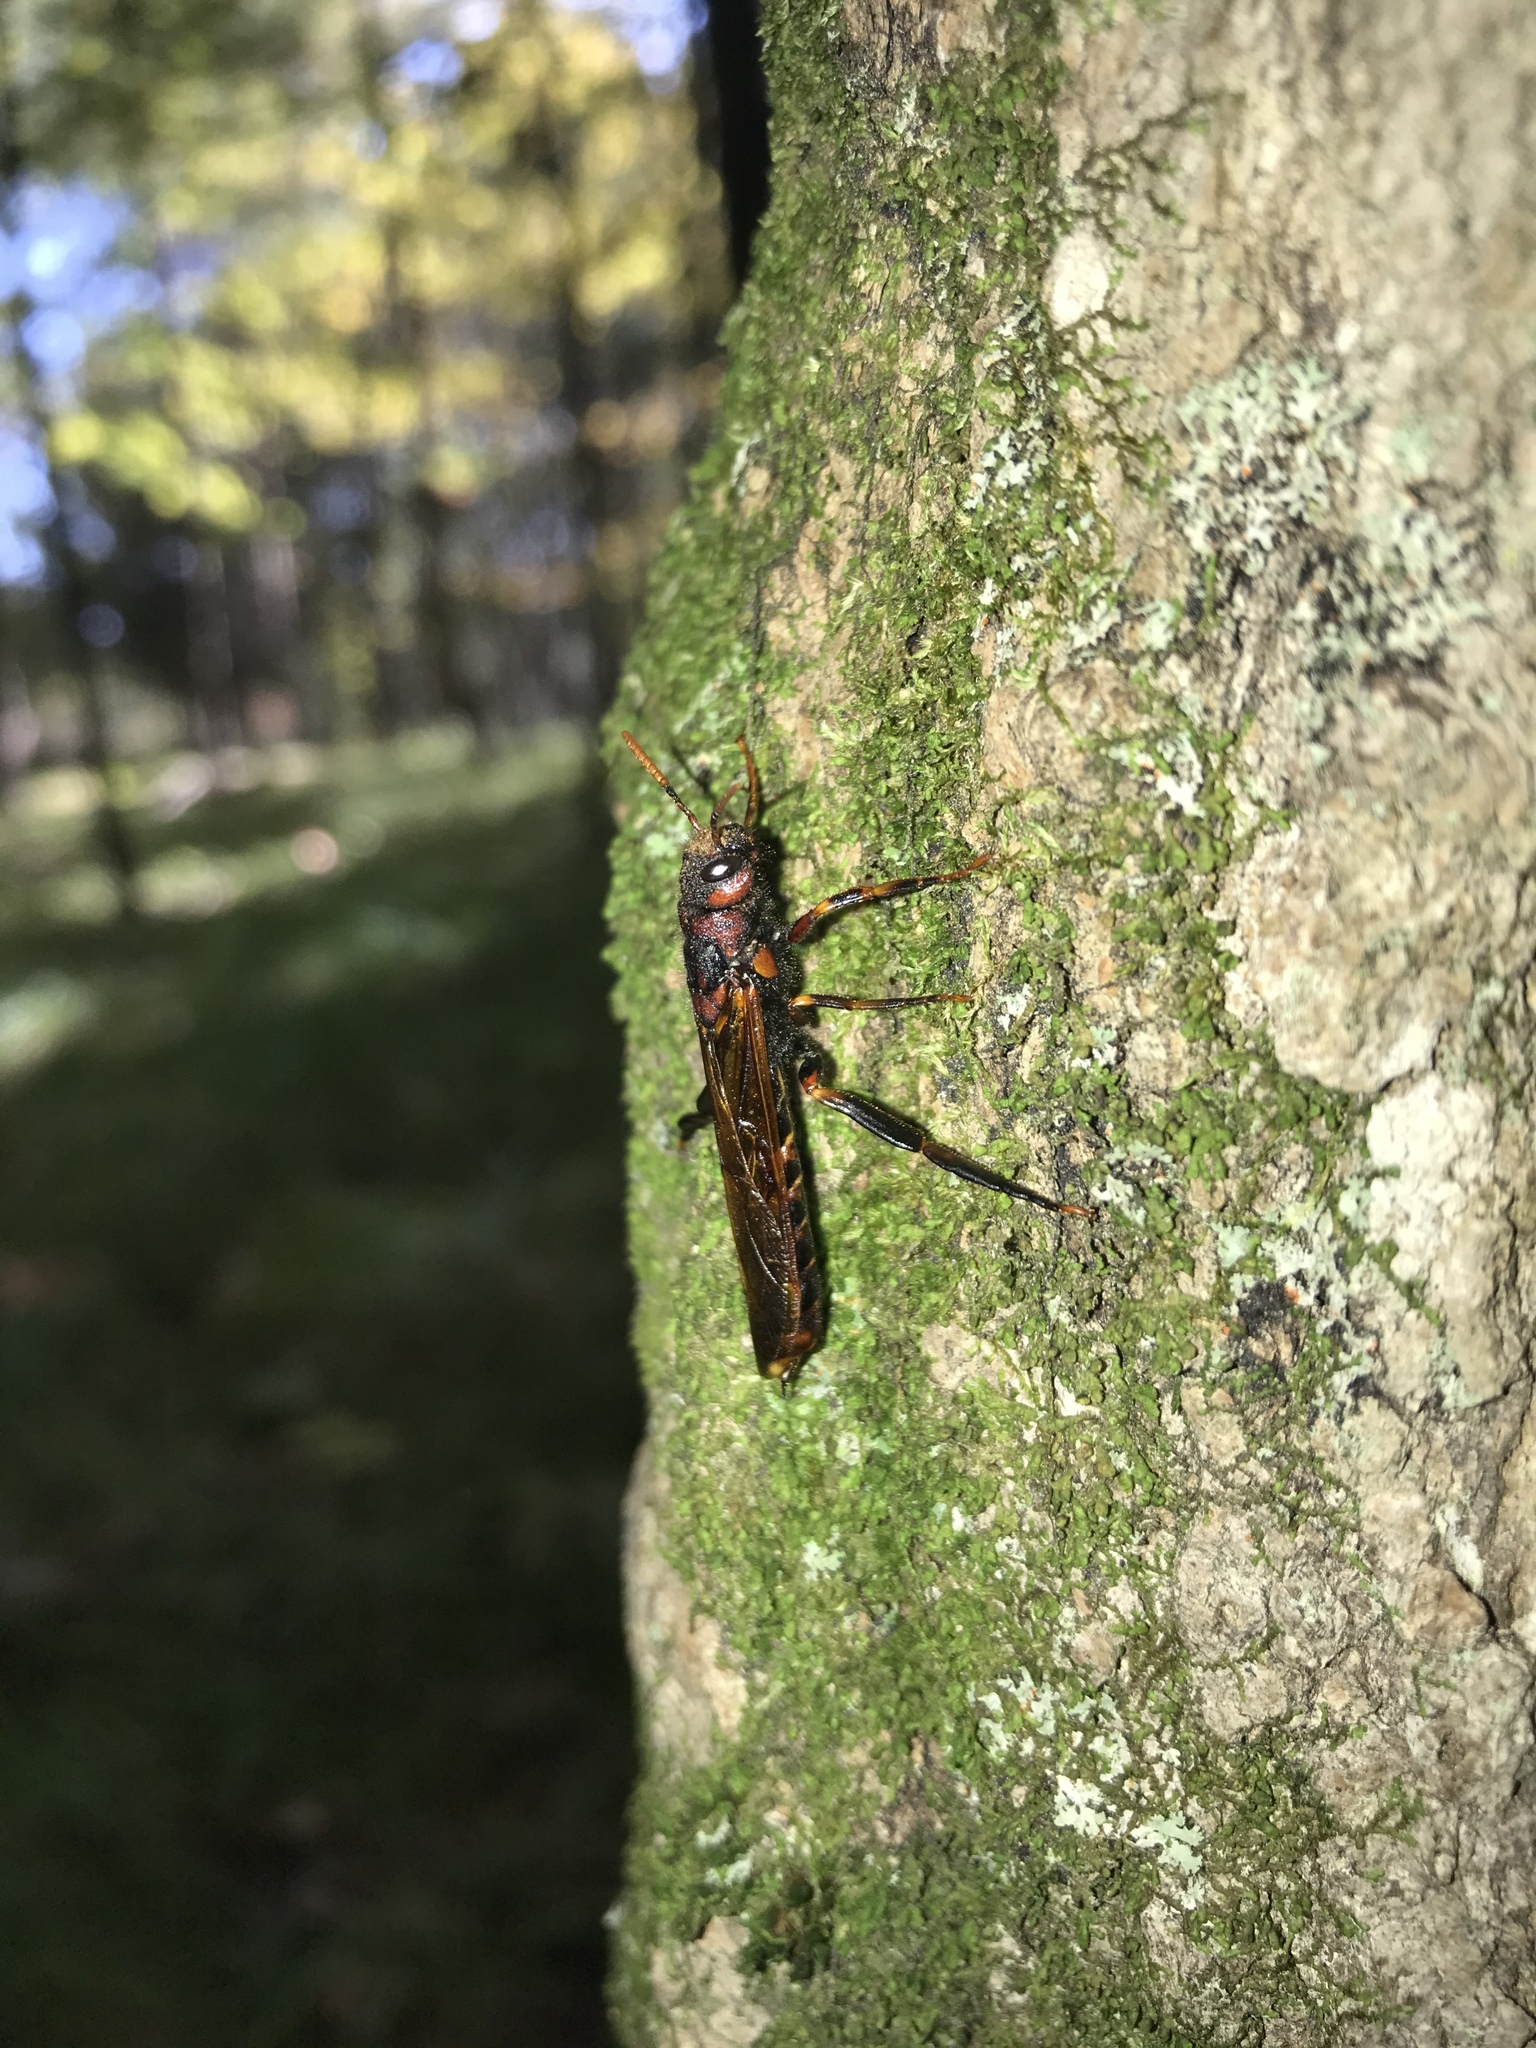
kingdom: Animalia
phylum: Arthropoda
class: Insecta
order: Hymenoptera
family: Siricidae
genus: Tremex
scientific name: Tremex columba
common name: Wasp
